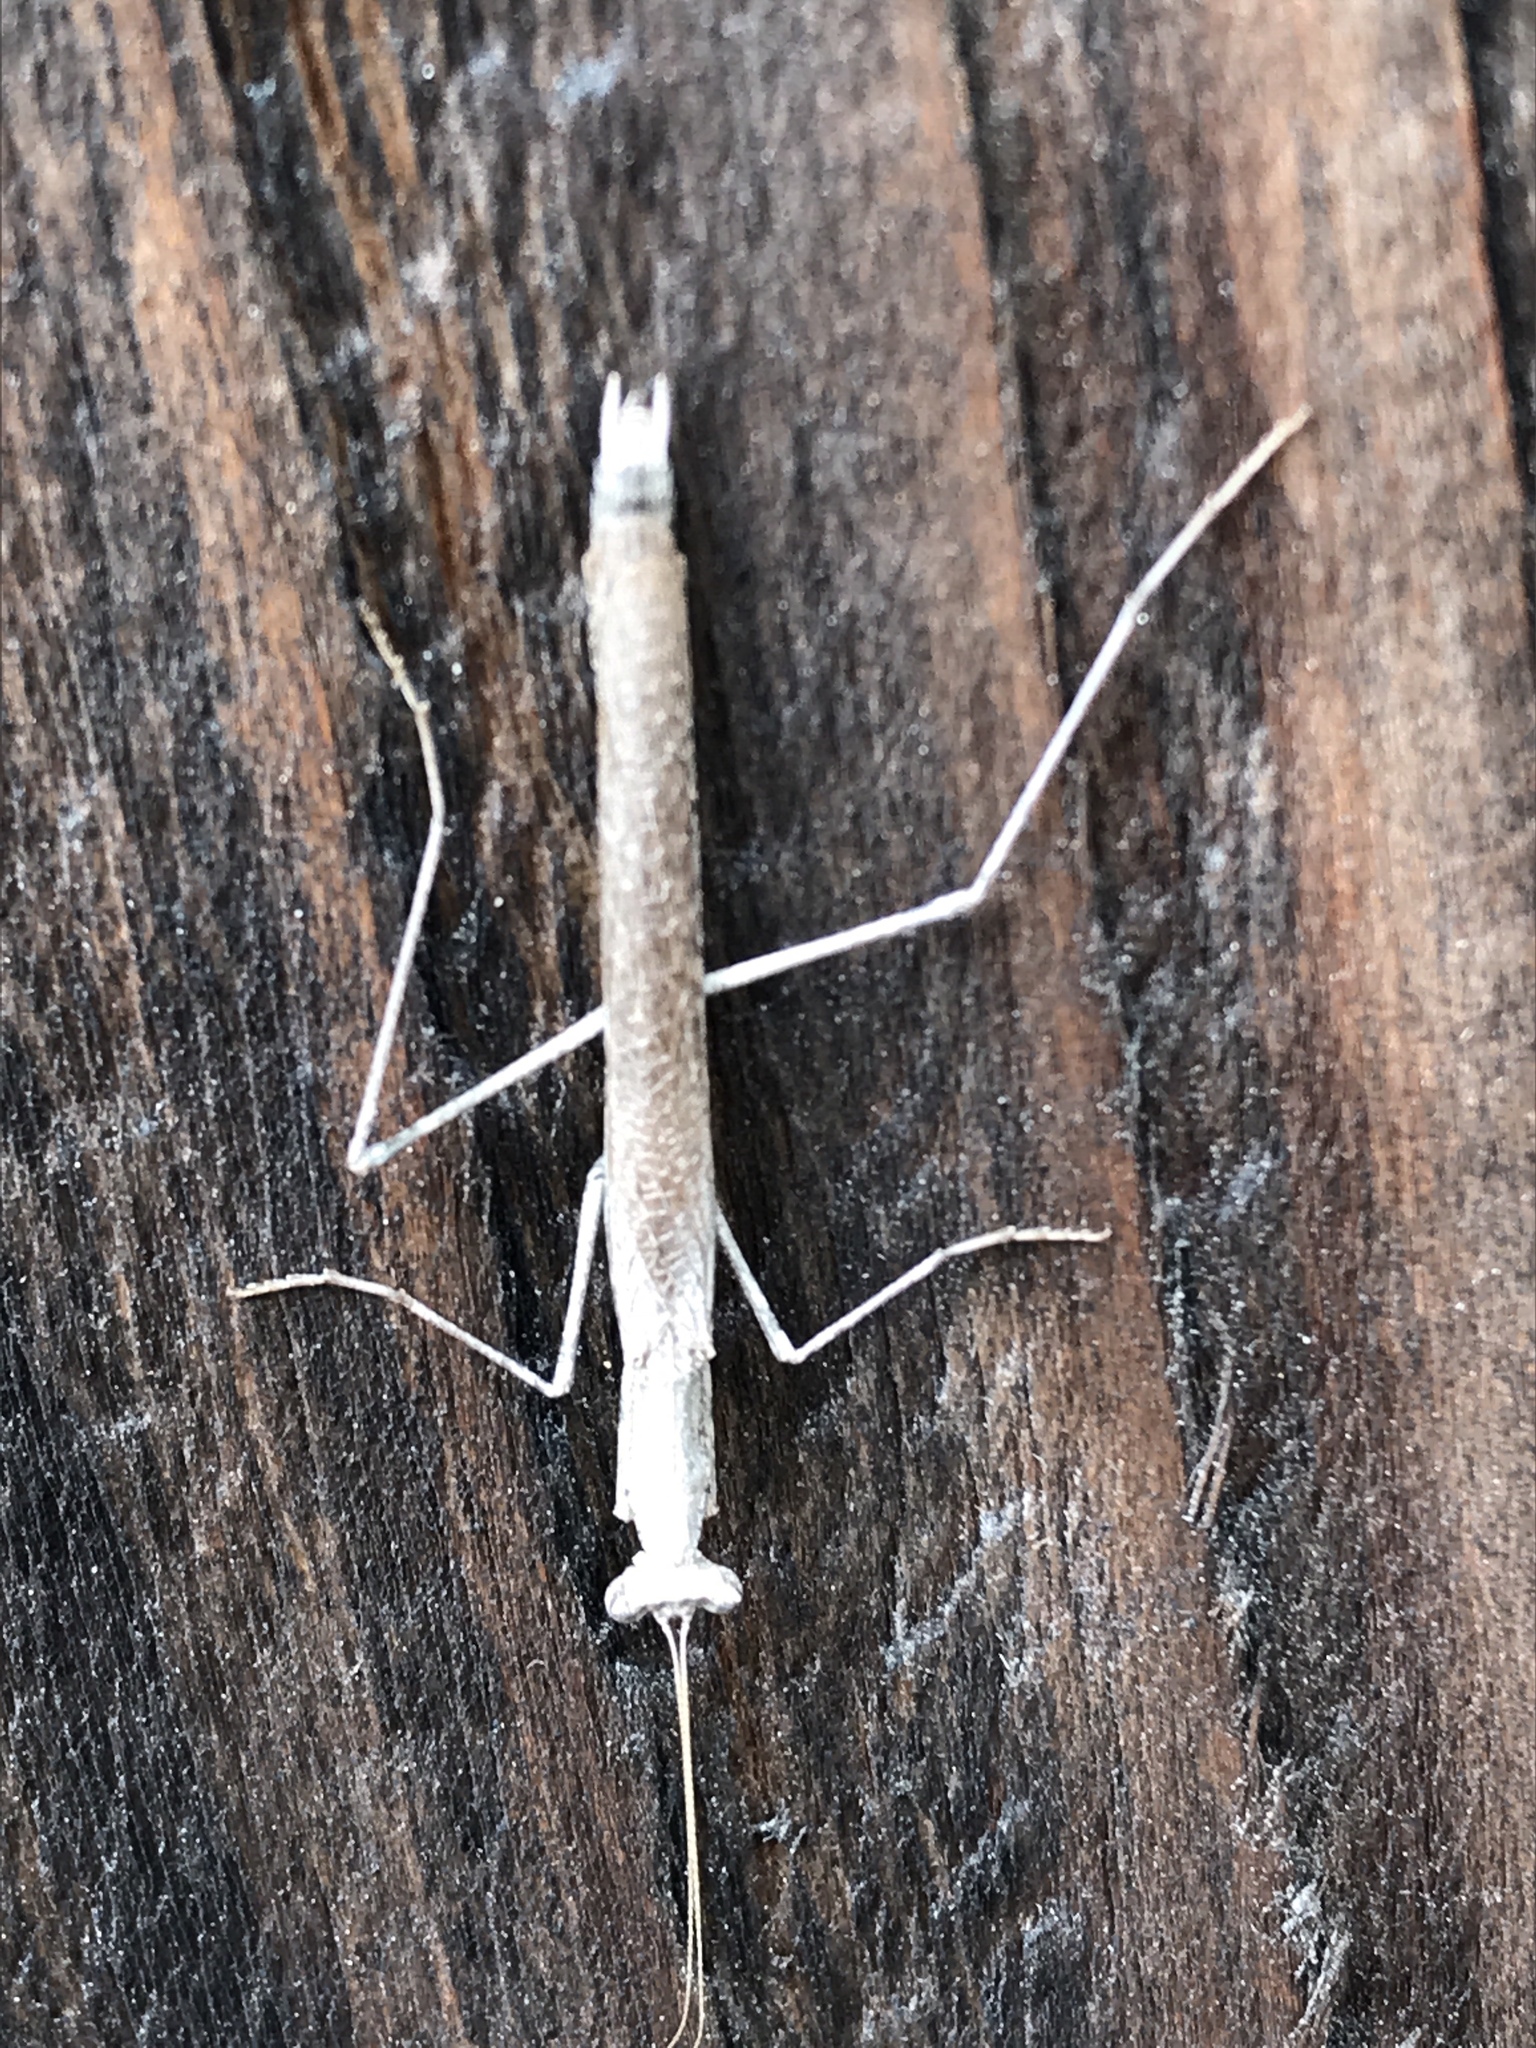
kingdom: Animalia
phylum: Arthropoda
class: Insecta
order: Mantodea
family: Amelidae
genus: Litaneutria
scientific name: Litaneutria pacifica
